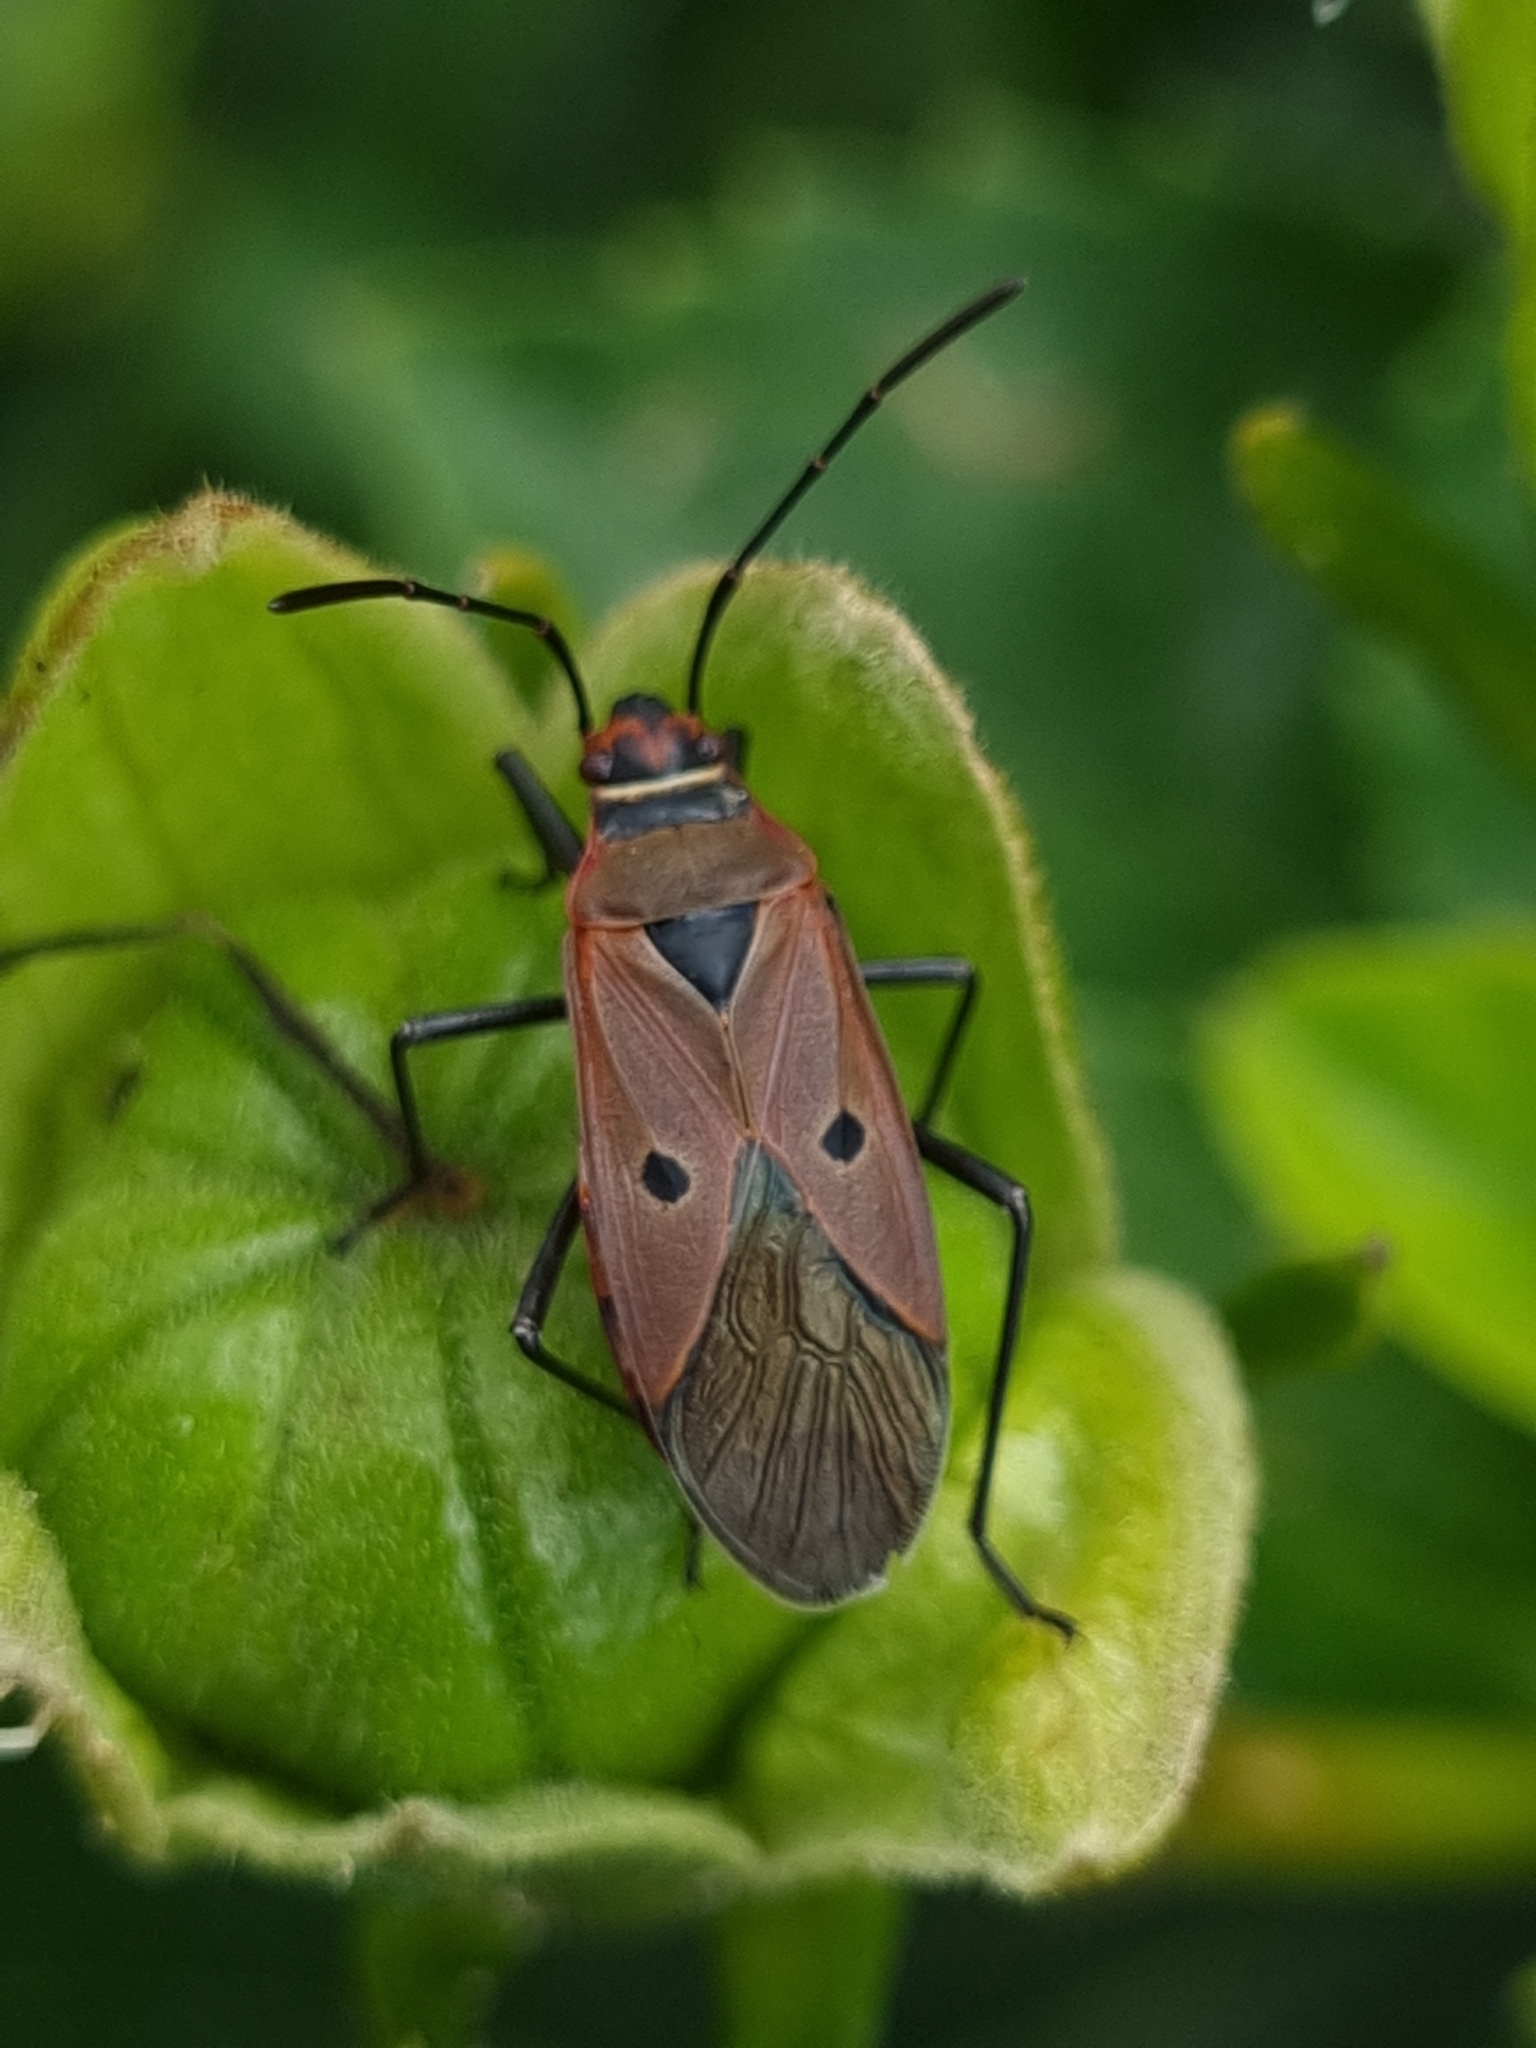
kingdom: Animalia
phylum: Arthropoda
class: Insecta
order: Hemiptera
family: Pyrrhocoridae
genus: Dysdercus
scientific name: Dysdercus sidae
